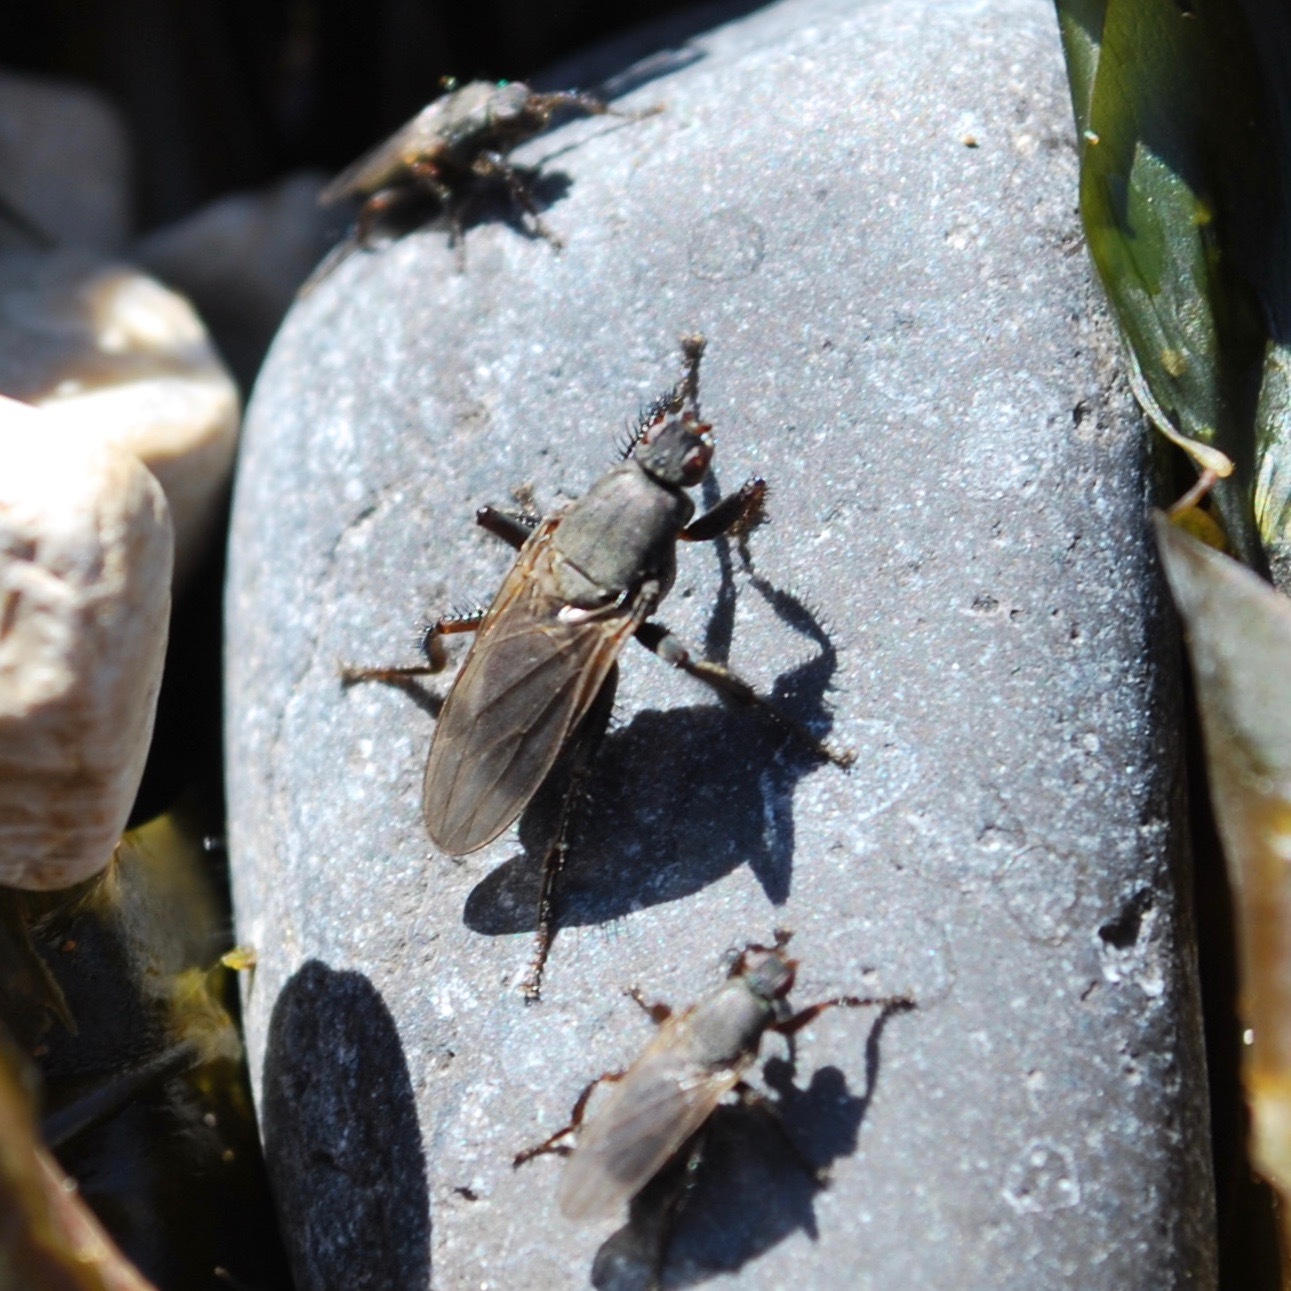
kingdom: Animalia
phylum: Arthropoda
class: Insecta
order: Diptera
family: Coelopidae
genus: Coelopa
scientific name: Coelopa vanduzeei
